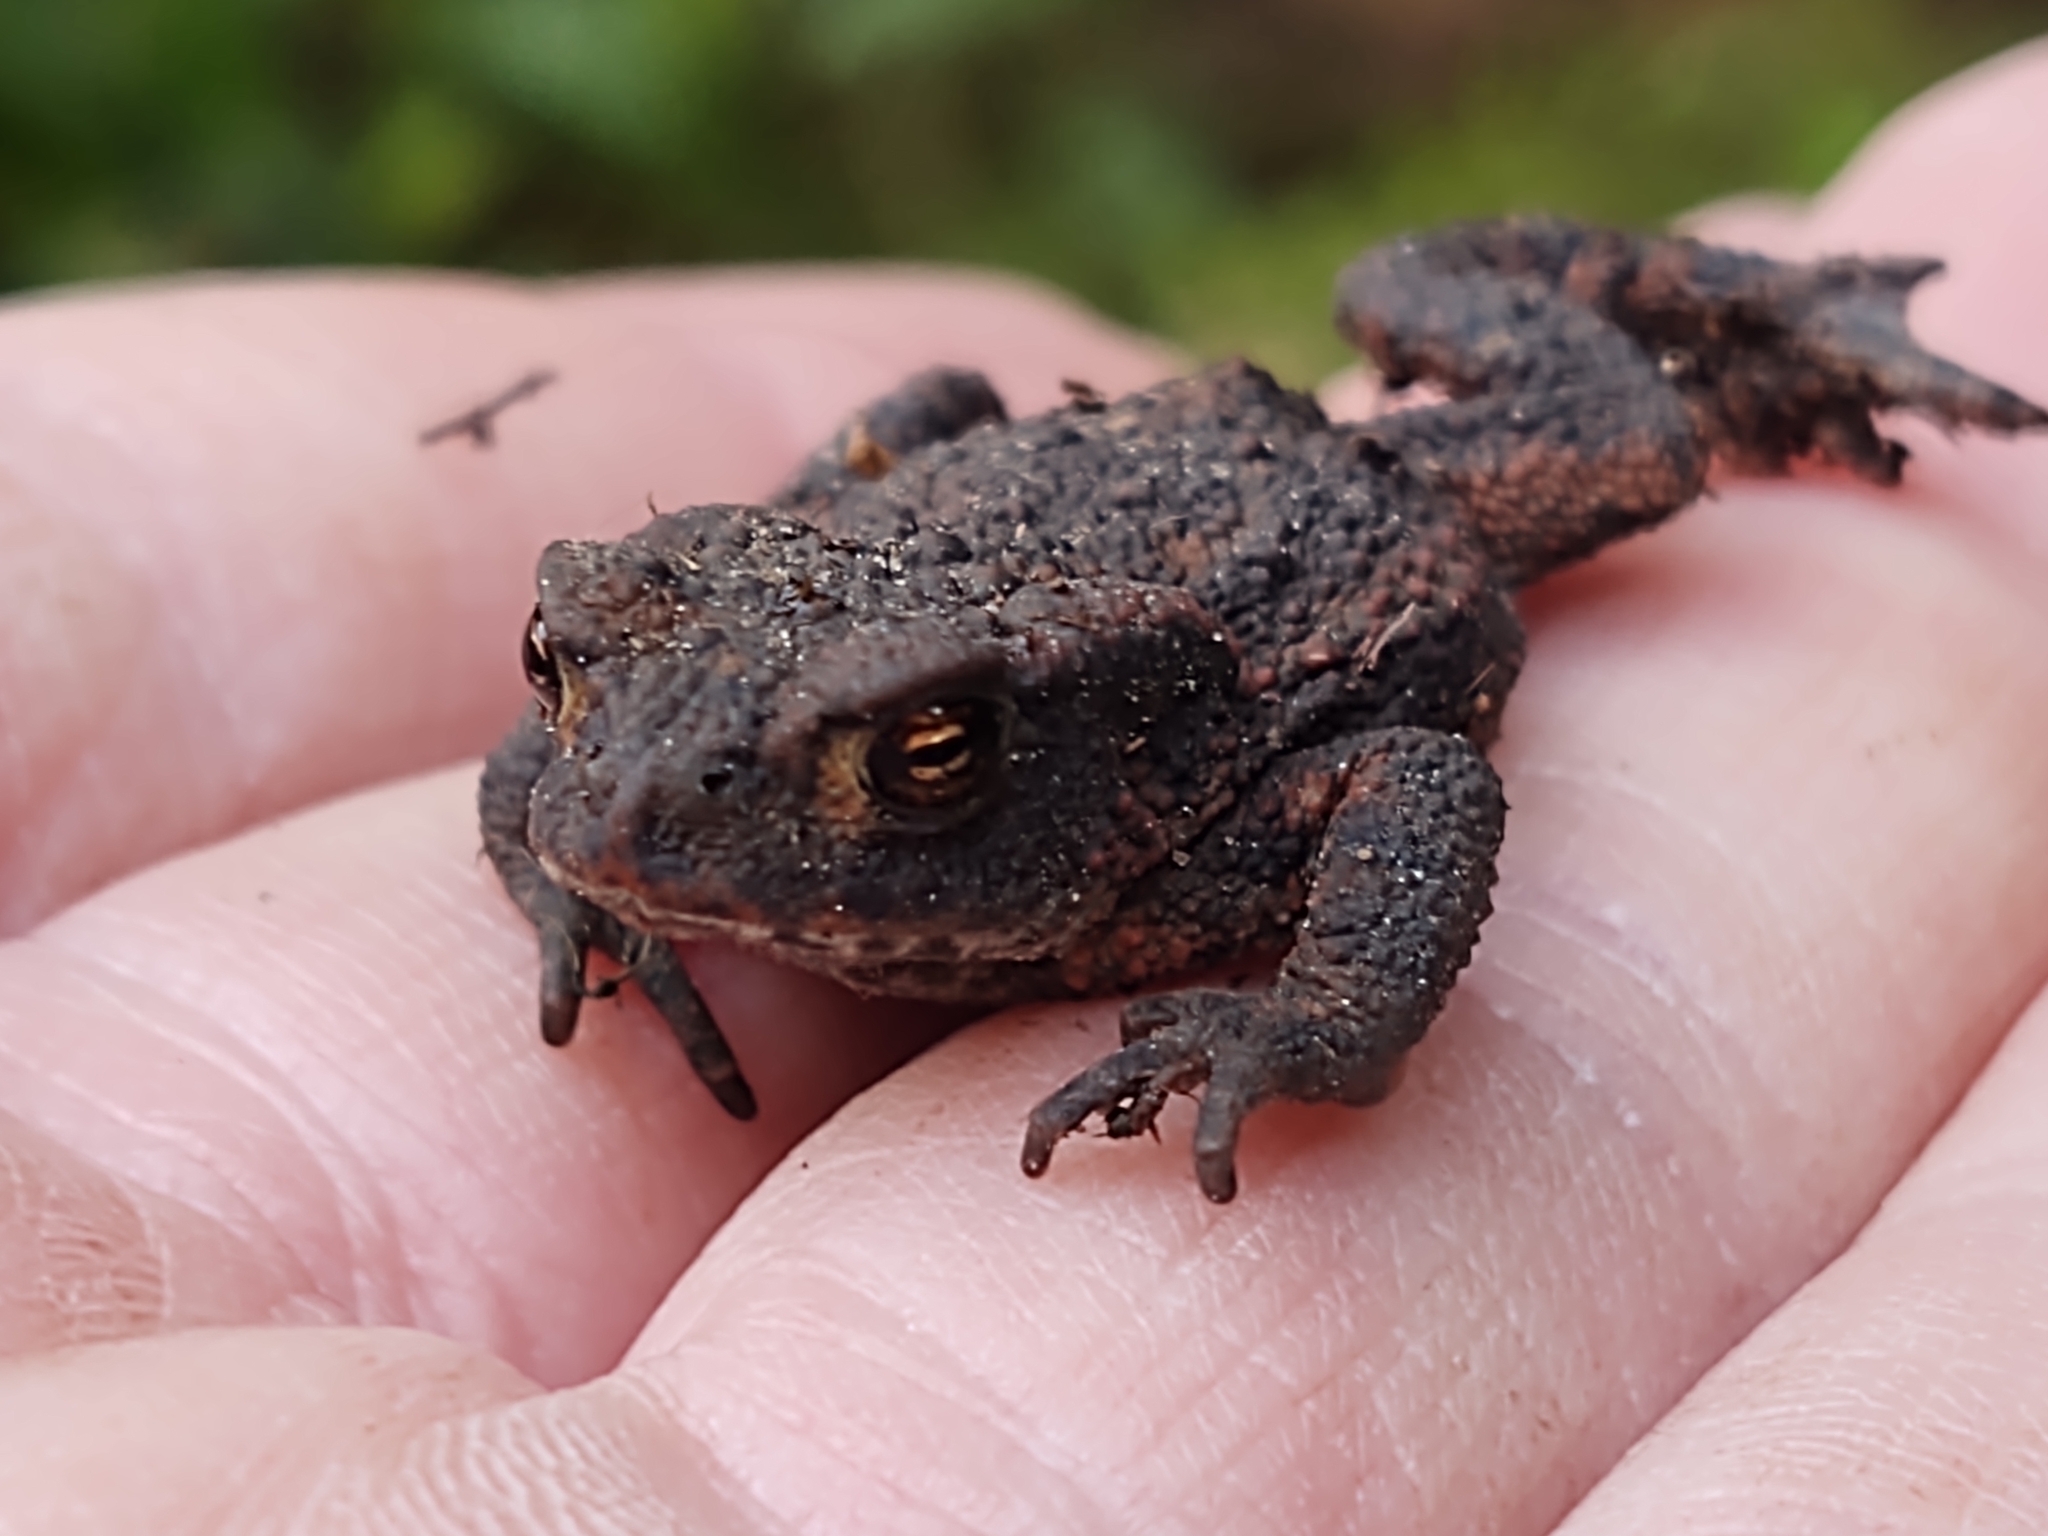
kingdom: Animalia
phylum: Chordata
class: Amphibia
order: Anura
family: Bufonidae
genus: Bufo
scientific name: Bufo bufo
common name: Common toad
